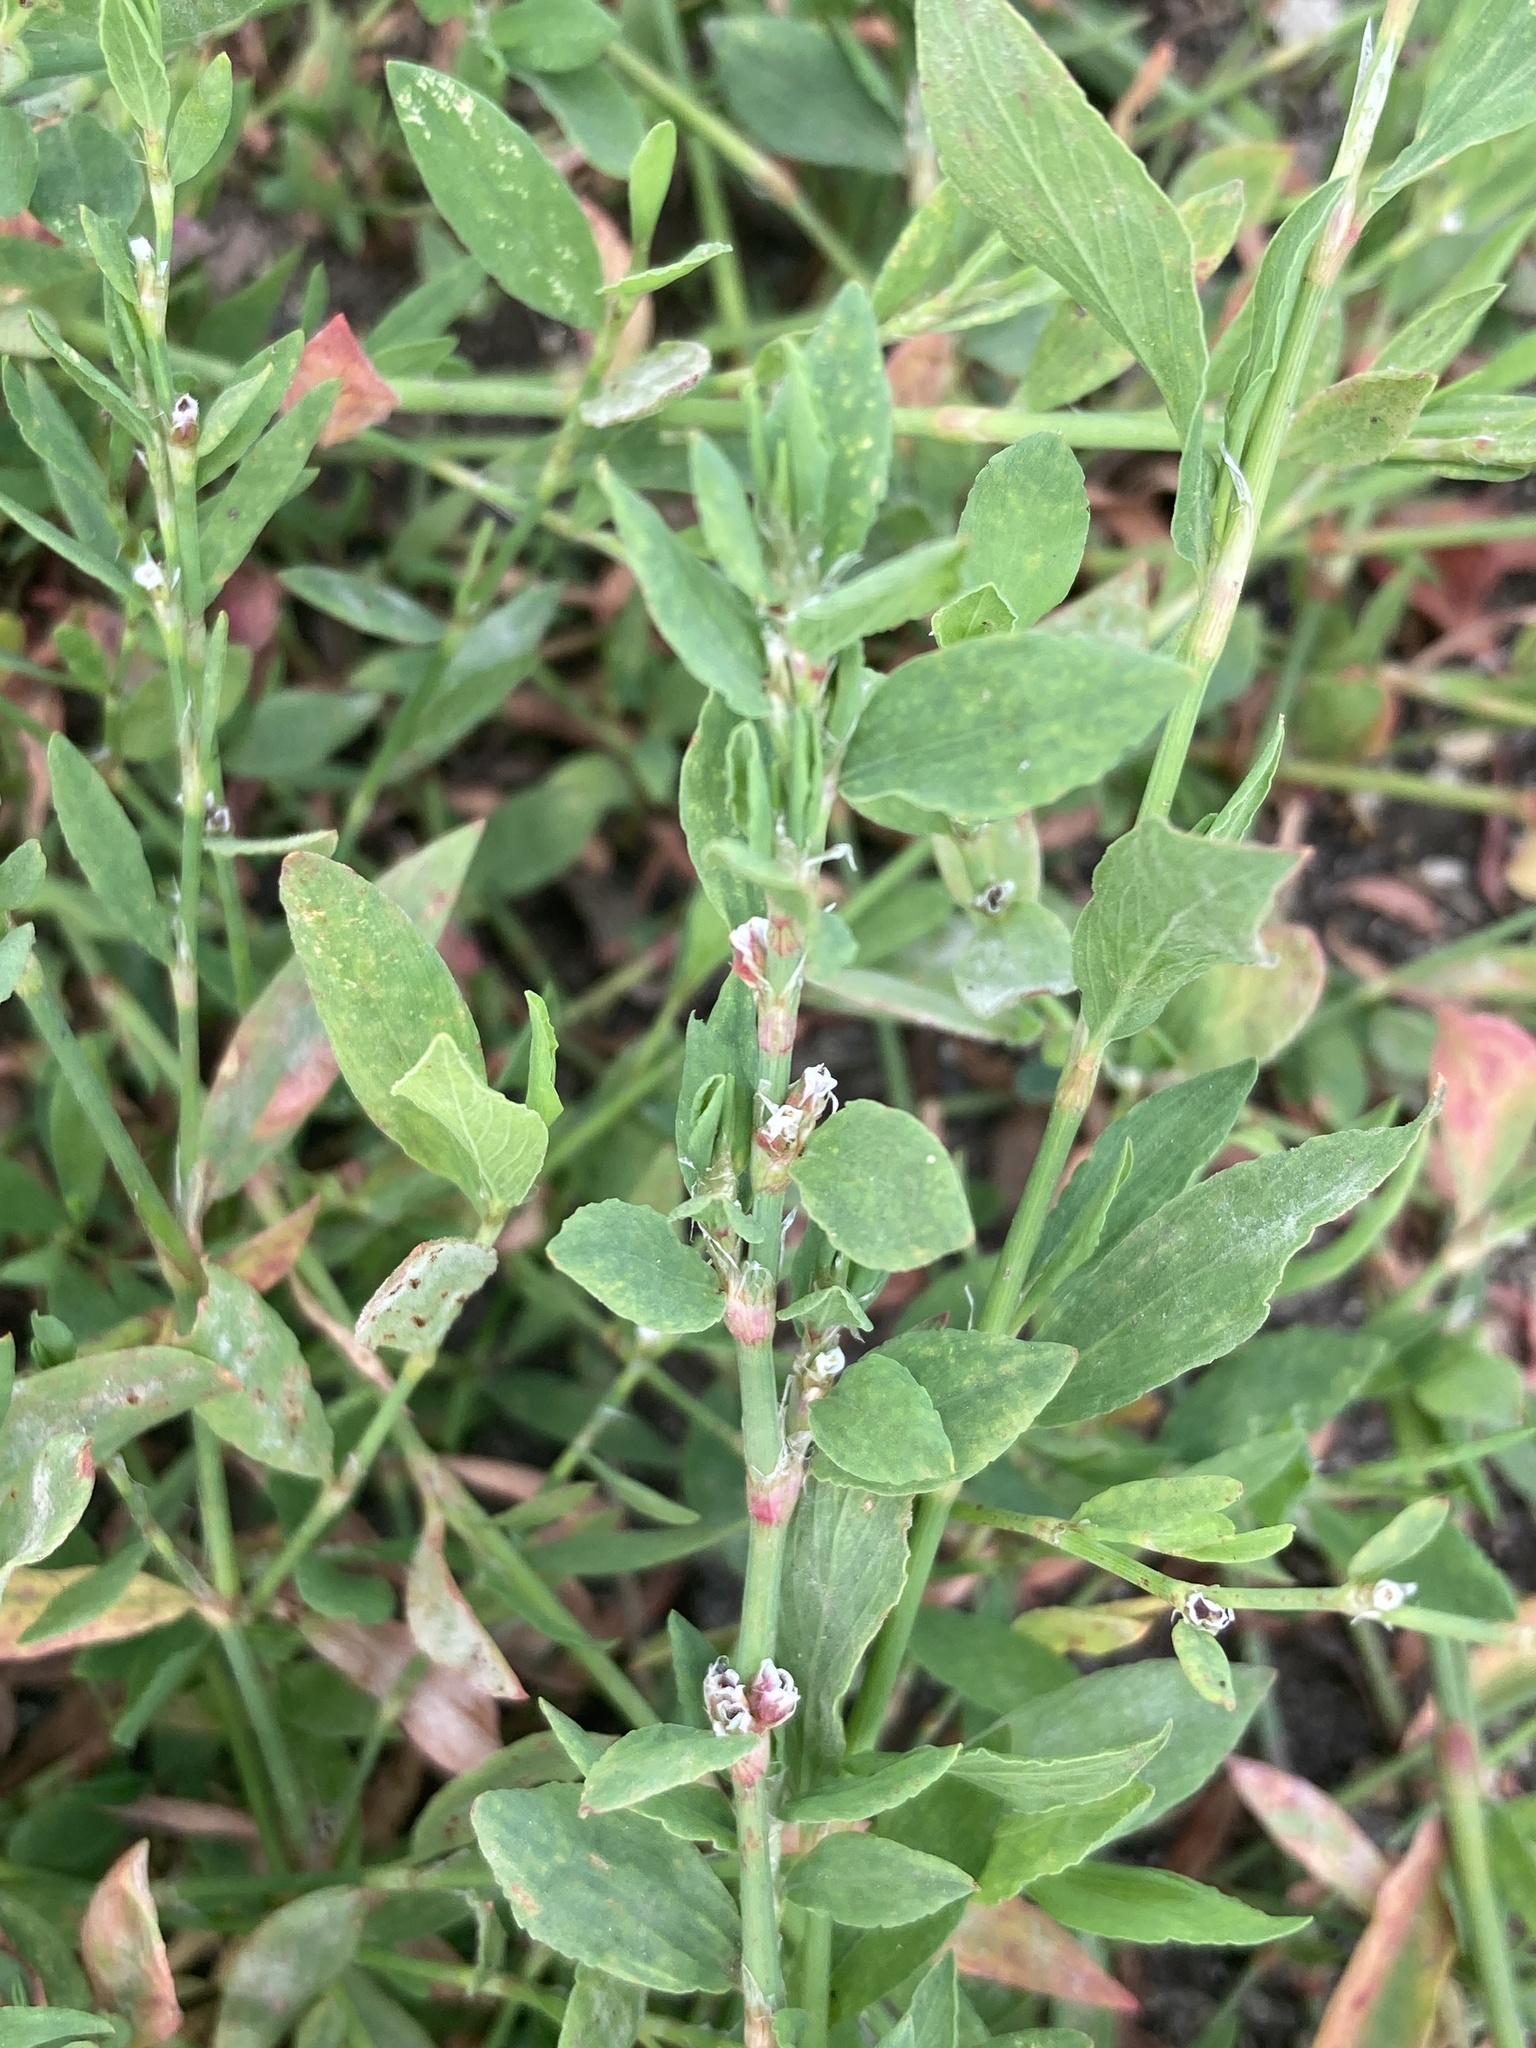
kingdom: Plantae
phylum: Tracheophyta
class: Magnoliopsida
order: Caryophyllales
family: Polygonaceae
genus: Polygonum
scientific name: Polygonum
